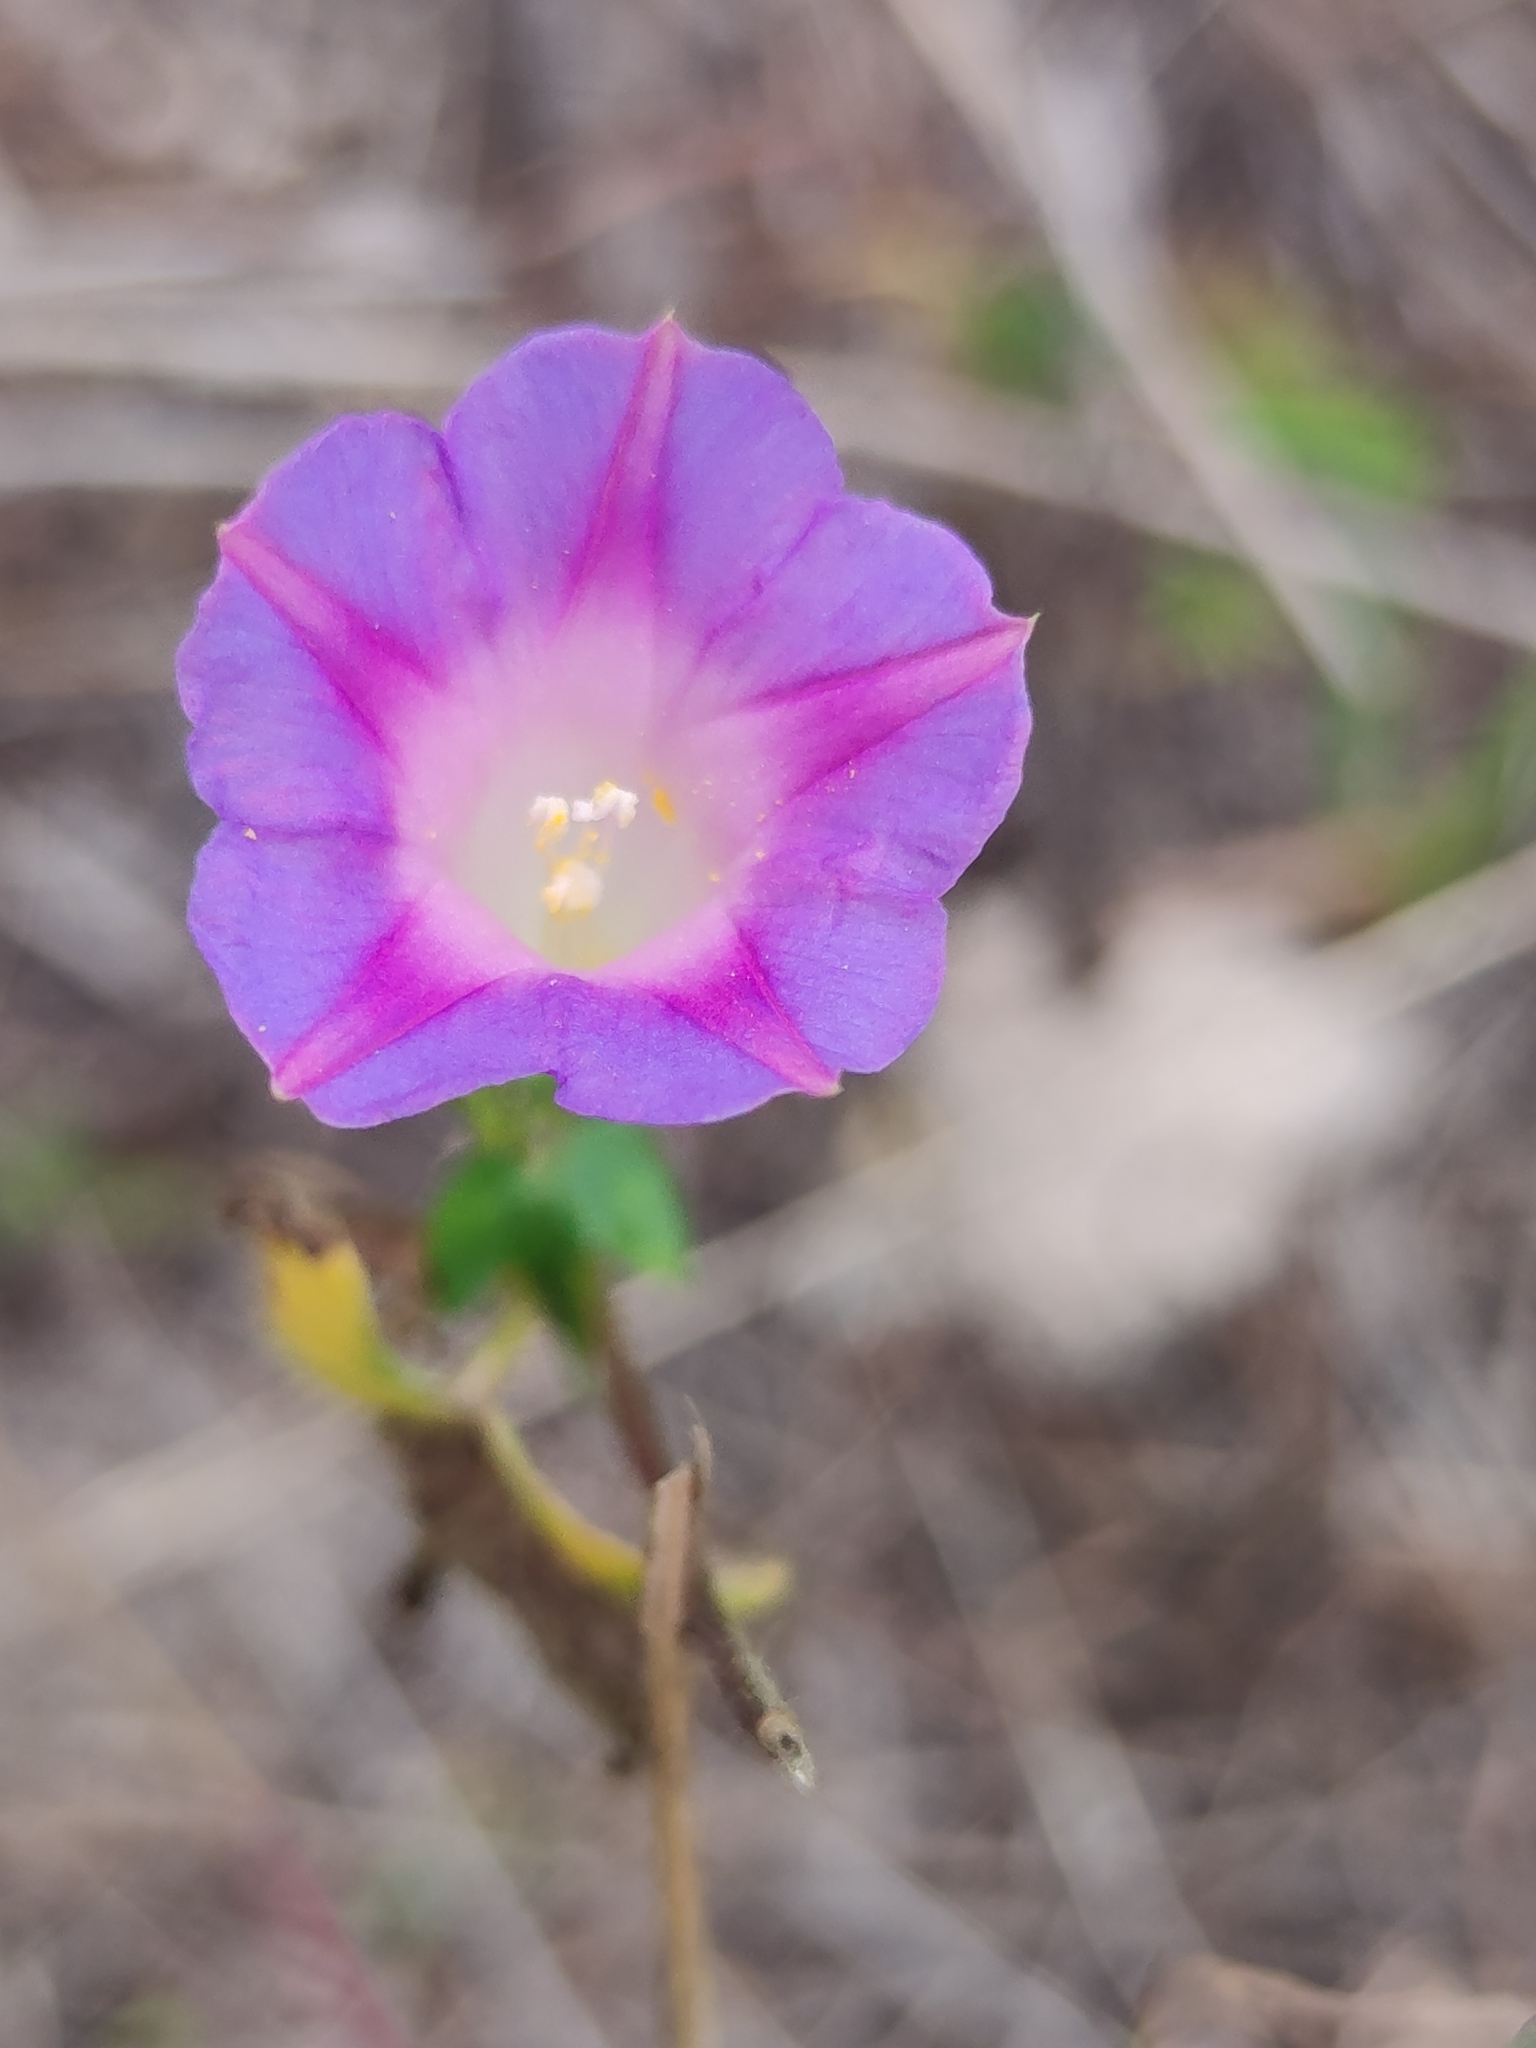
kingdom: Plantae
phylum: Tracheophyta
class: Magnoliopsida
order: Solanales
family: Convolvulaceae
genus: Ipomoea
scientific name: Ipomoea purpurea
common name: Common morning-glory
